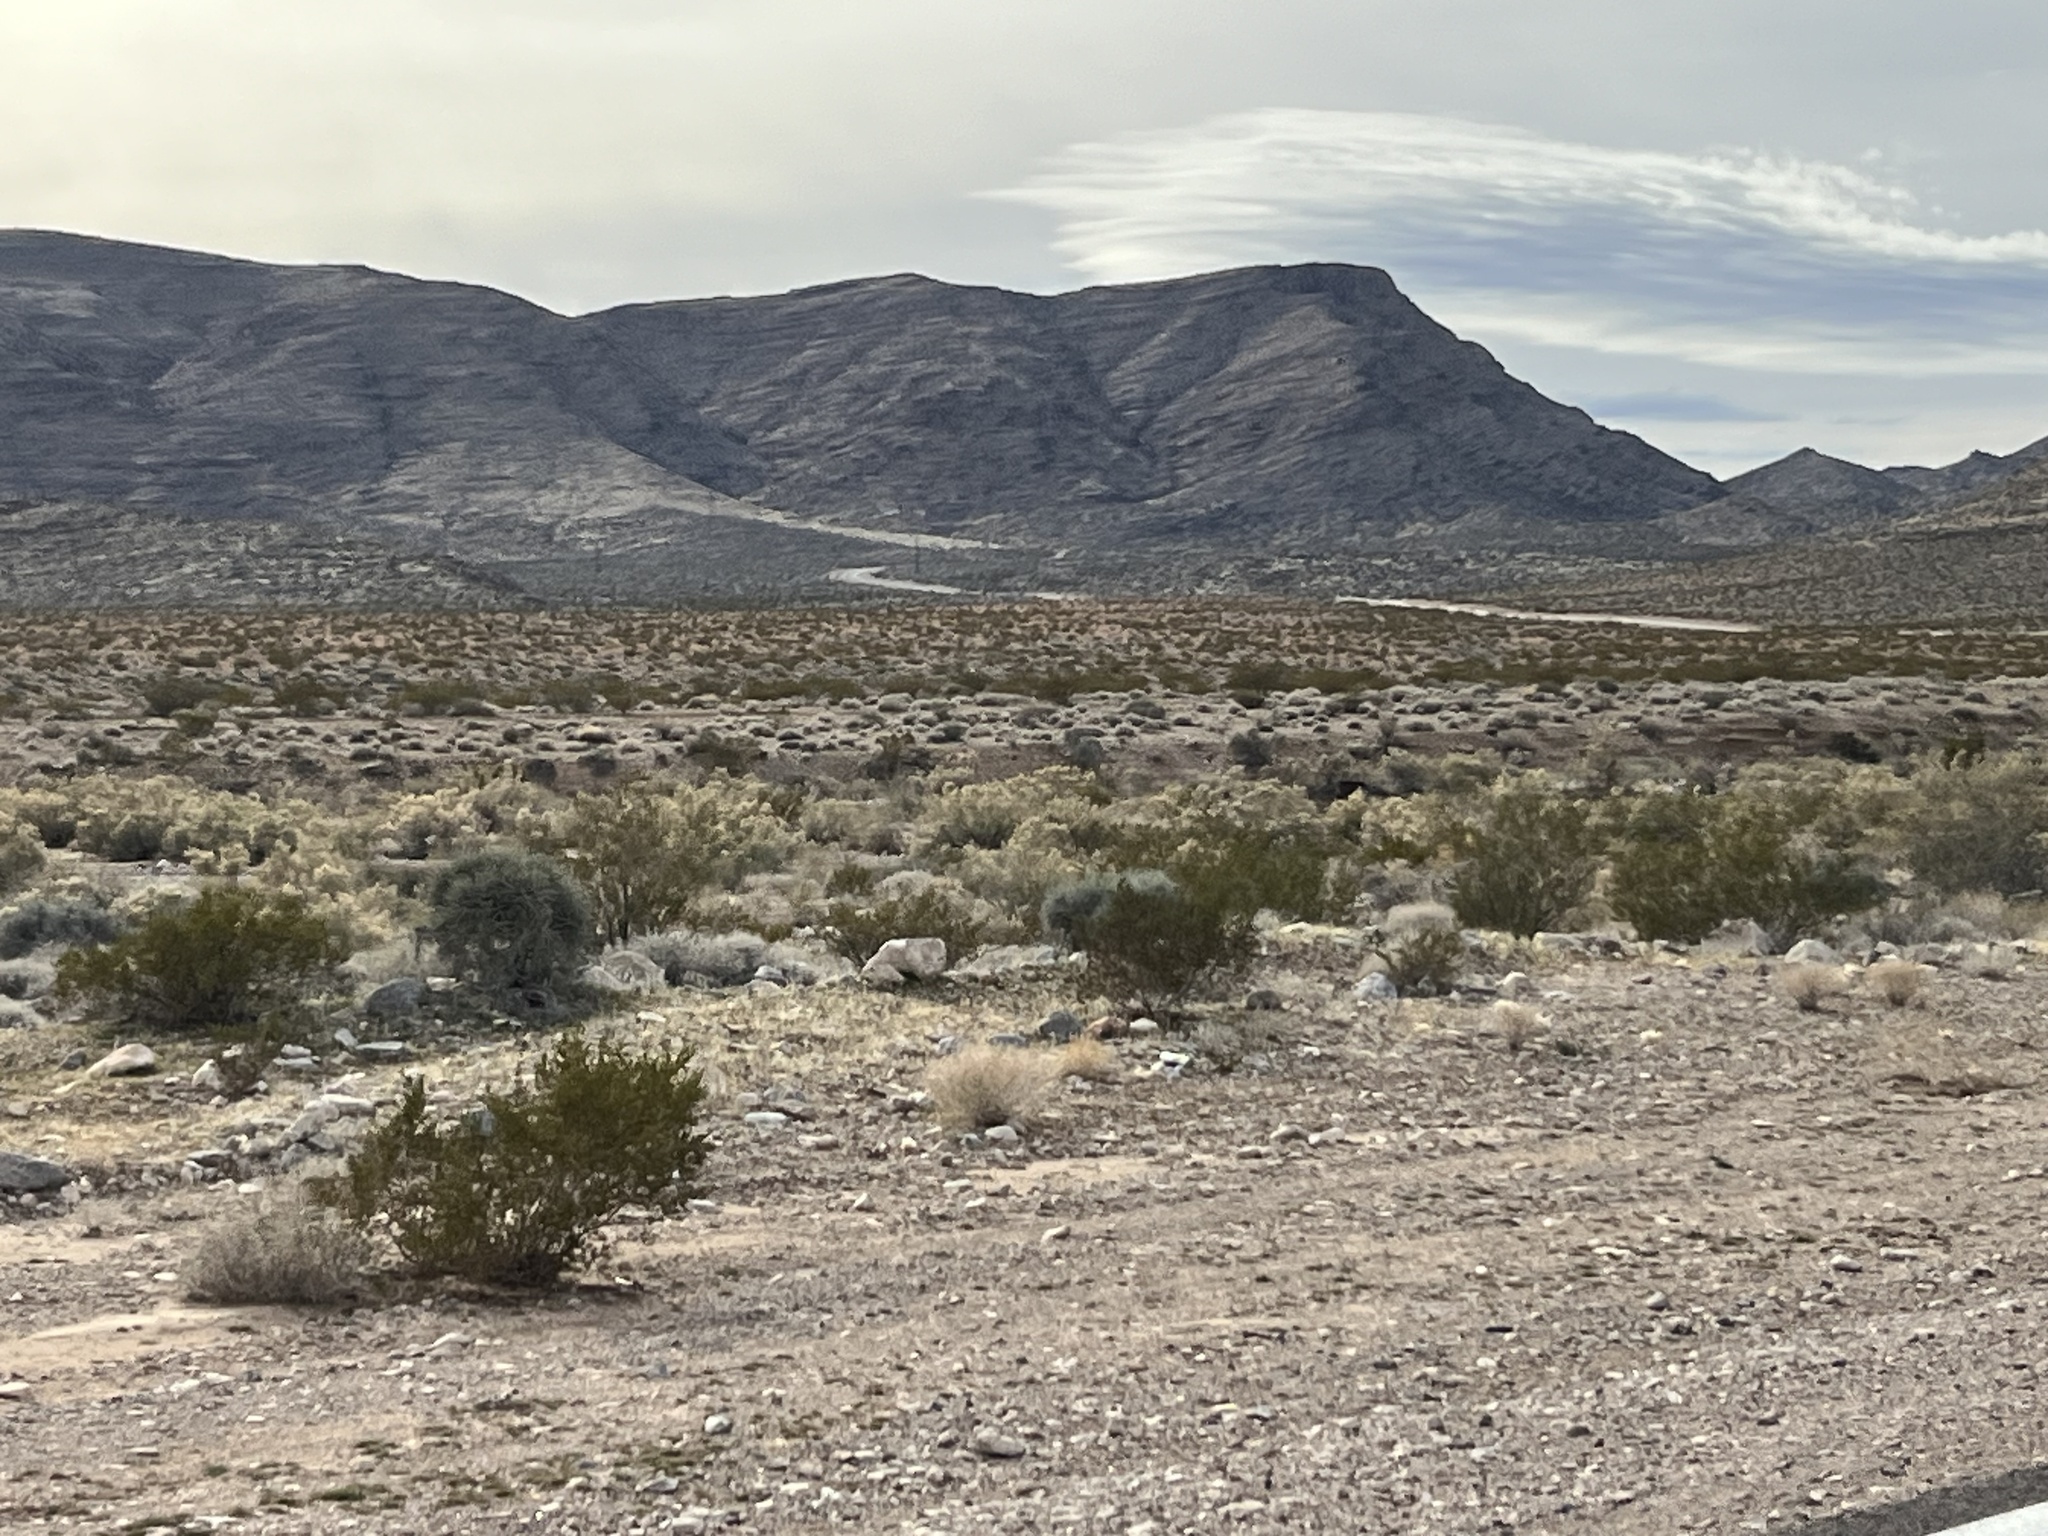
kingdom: Plantae
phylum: Tracheophyta
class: Magnoliopsida
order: Zygophyllales
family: Zygophyllaceae
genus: Larrea
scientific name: Larrea tridentata
